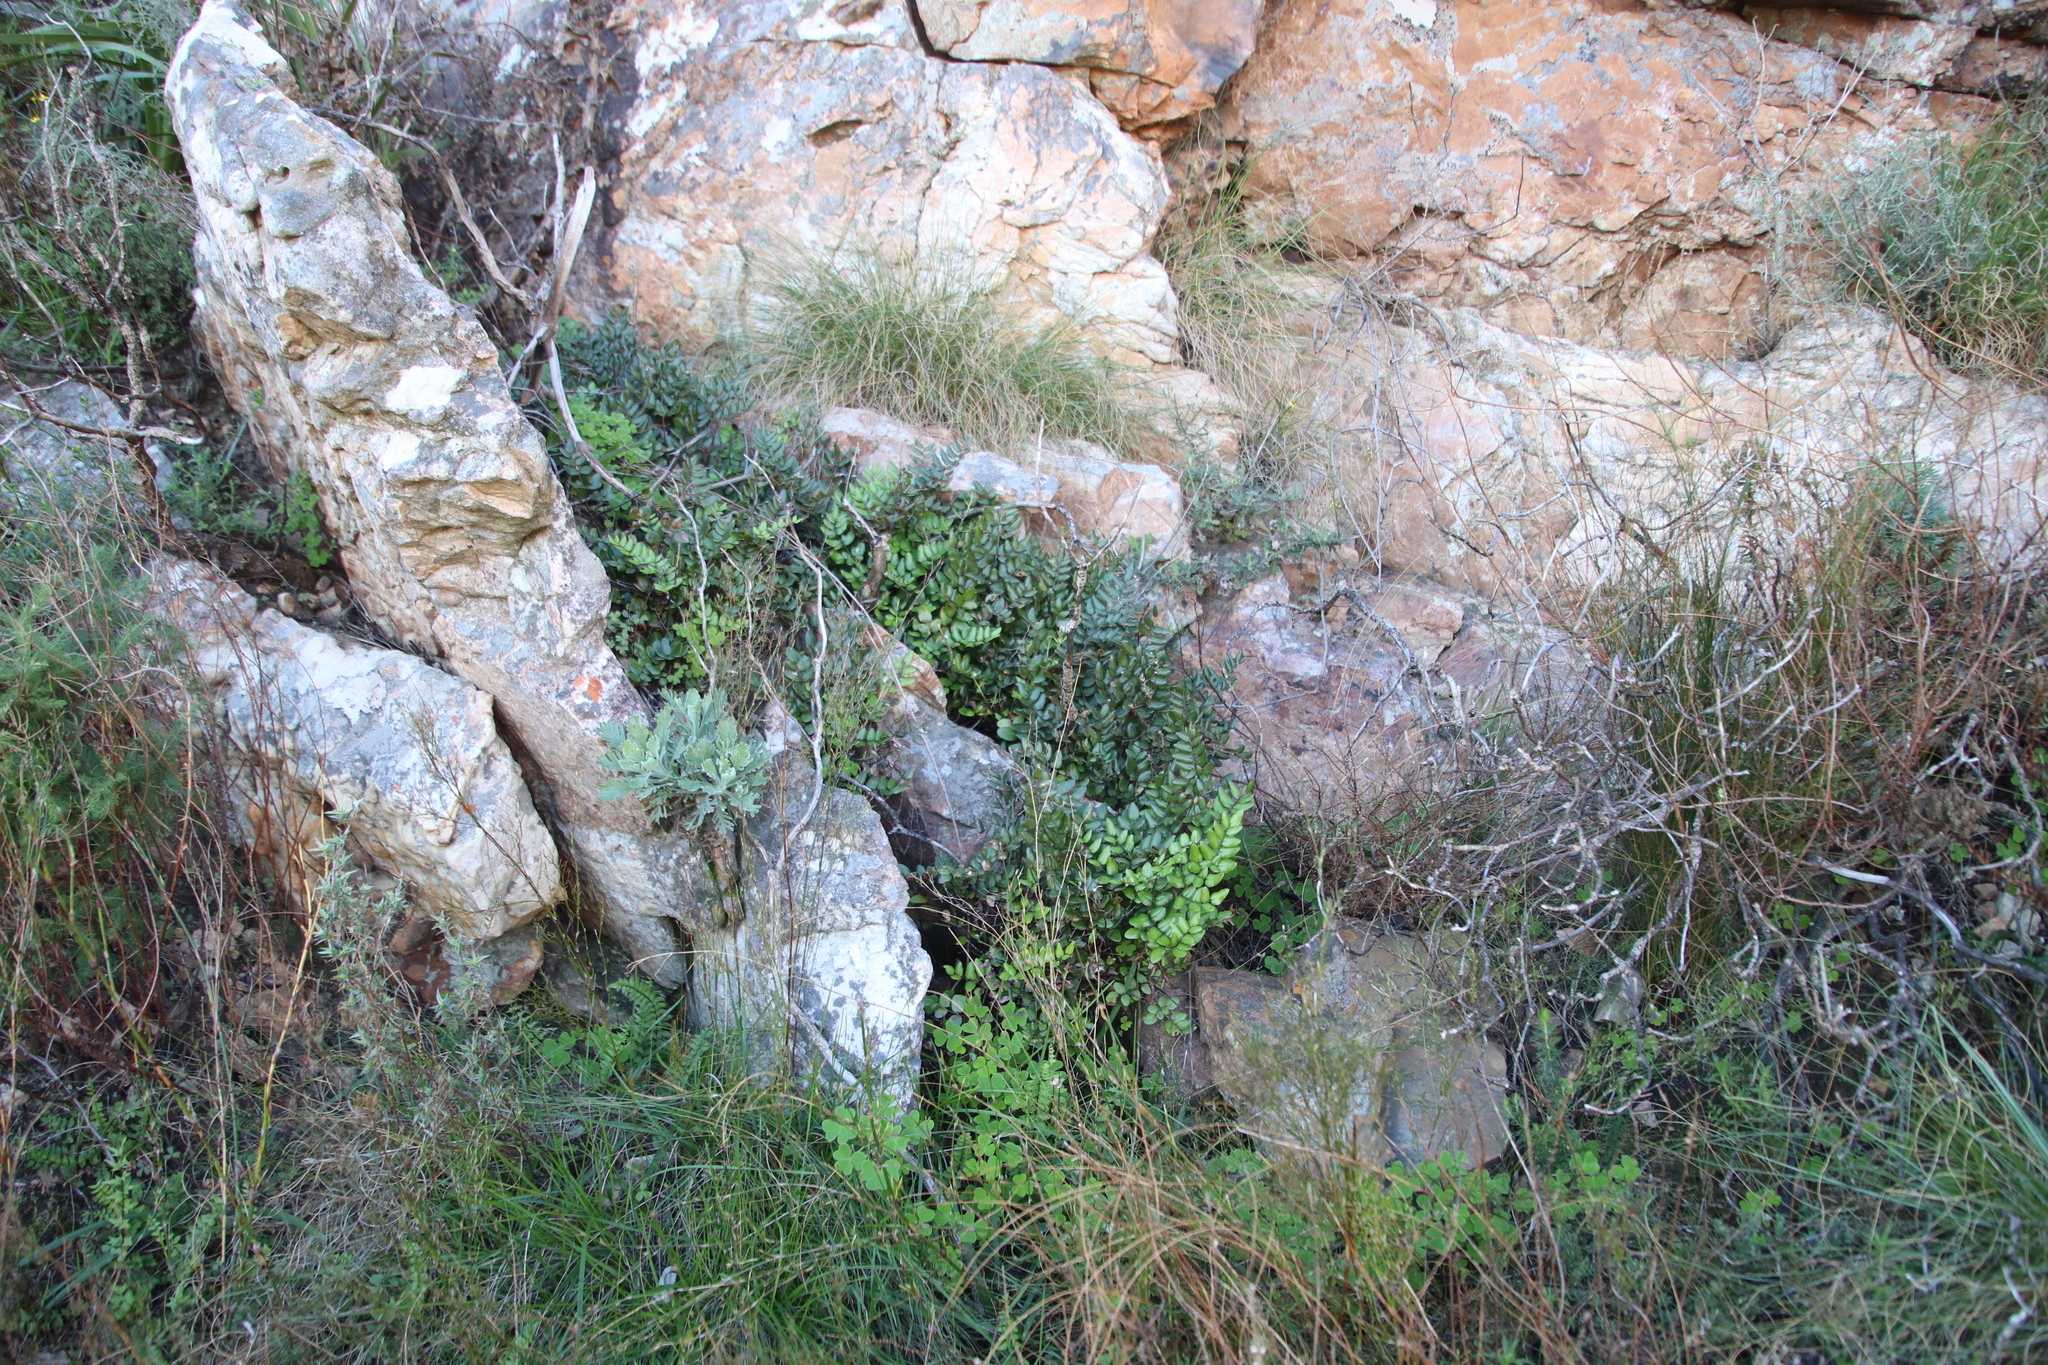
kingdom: Plantae
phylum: Tracheophyta
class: Polypodiopsida
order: Polypodiales
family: Pteridaceae
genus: Pellaea
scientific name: Pellaea pteroides
